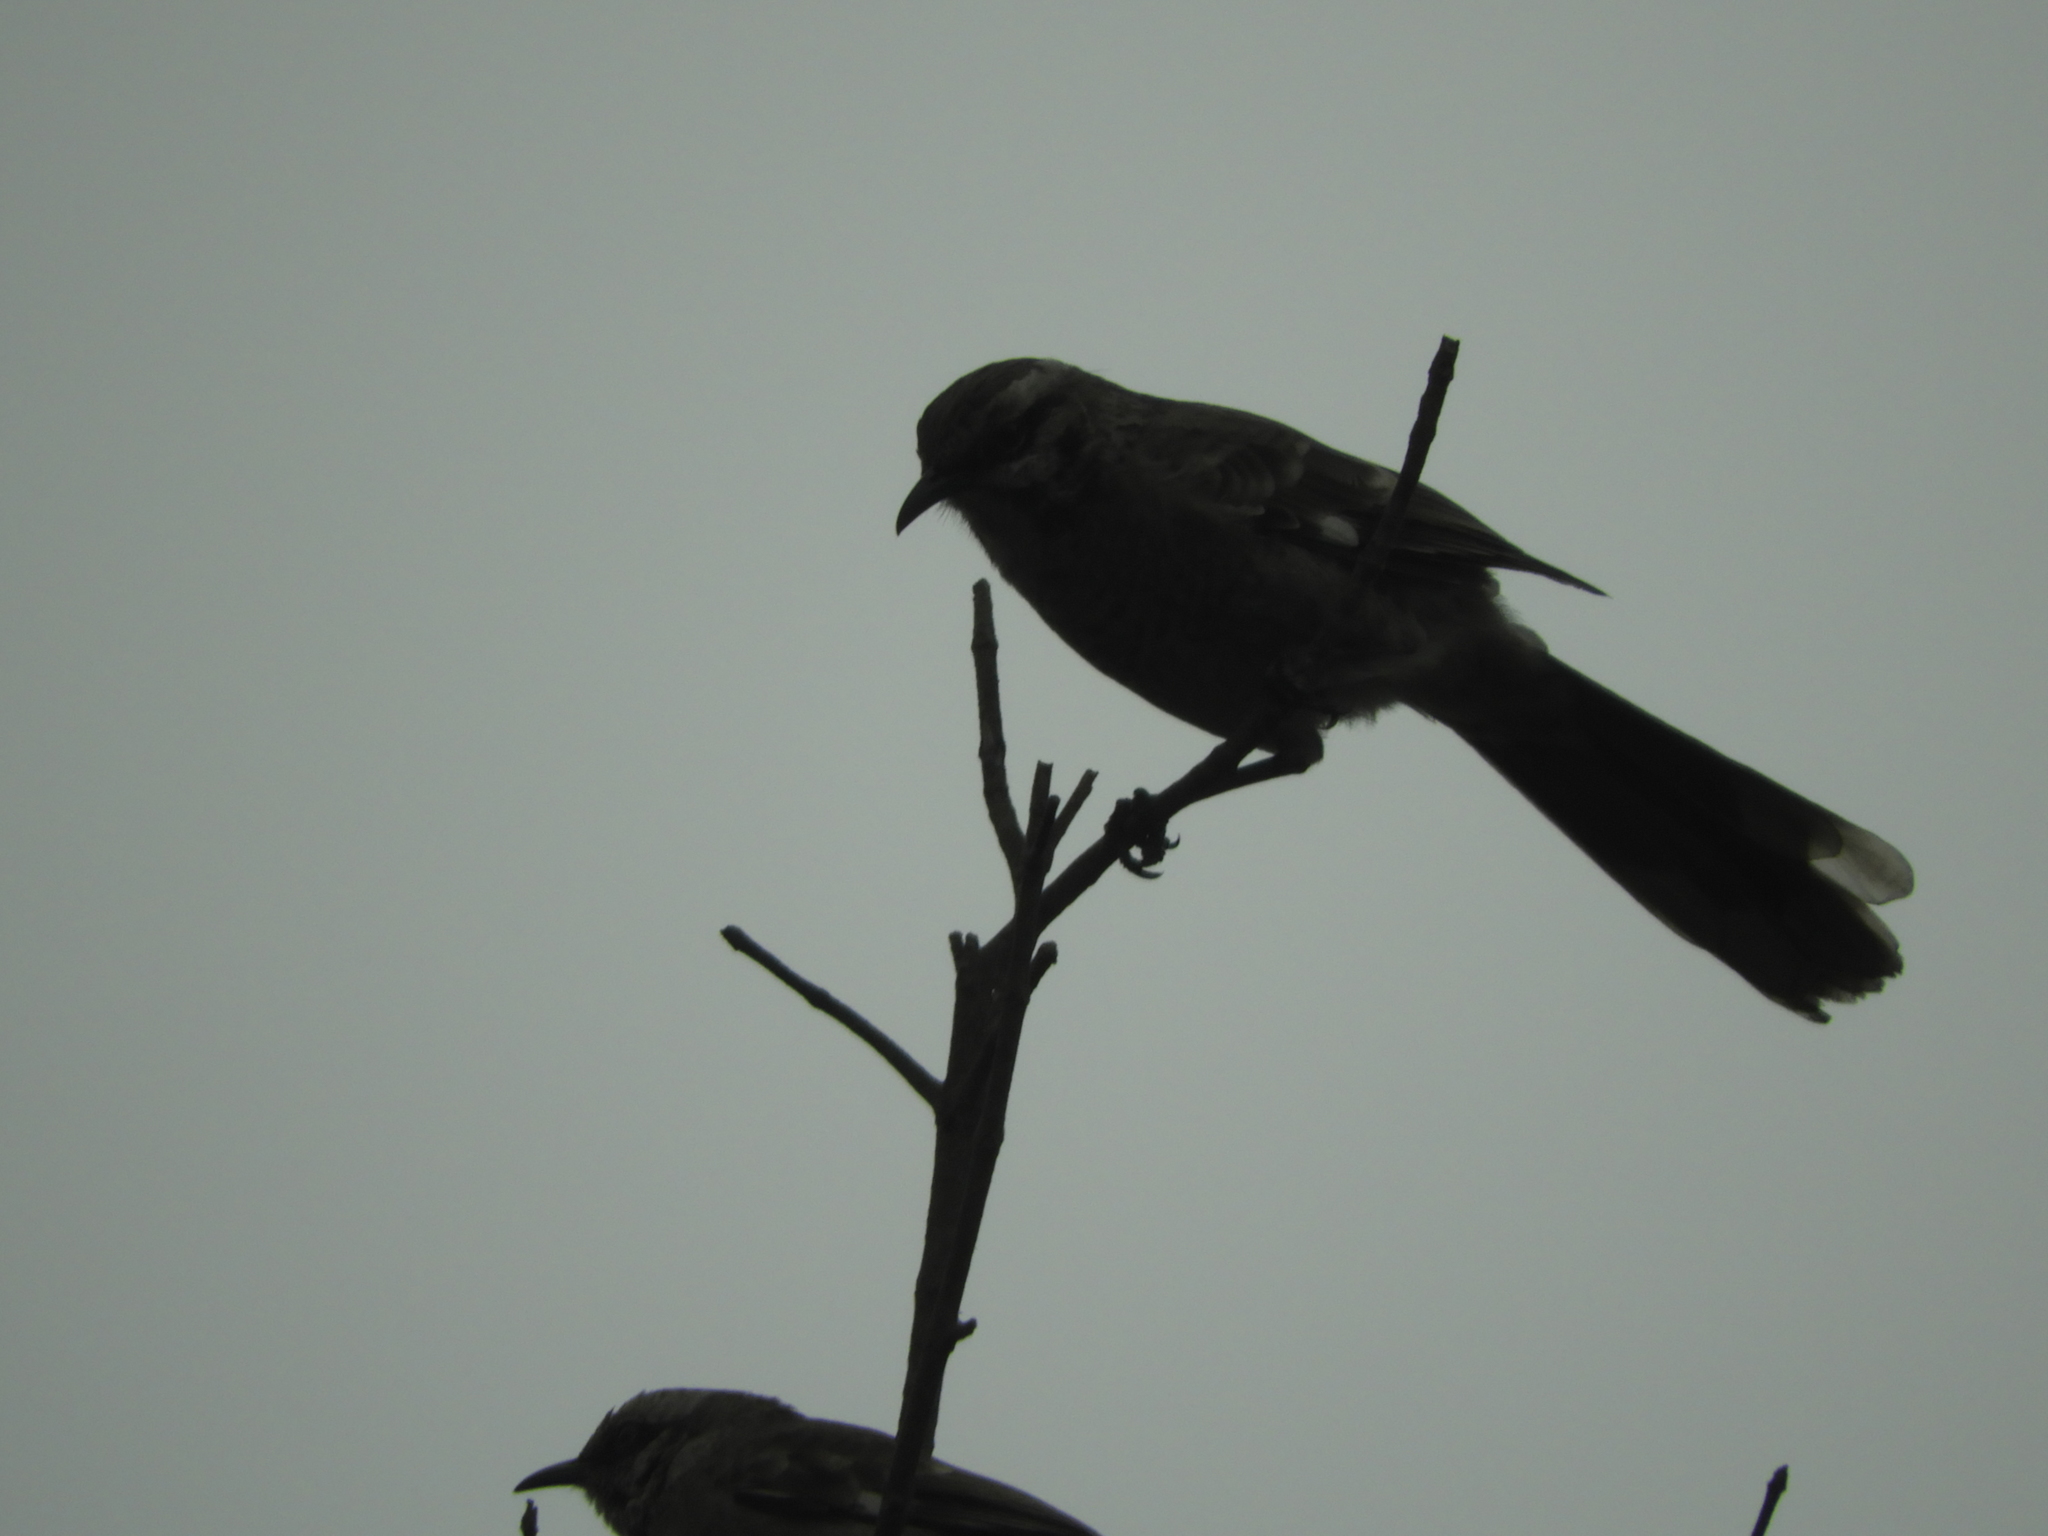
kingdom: Animalia
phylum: Chordata
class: Aves
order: Passeriformes
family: Mimidae
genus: Mimus
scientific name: Mimus longicaudatus
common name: Long-tailed mockingbird
